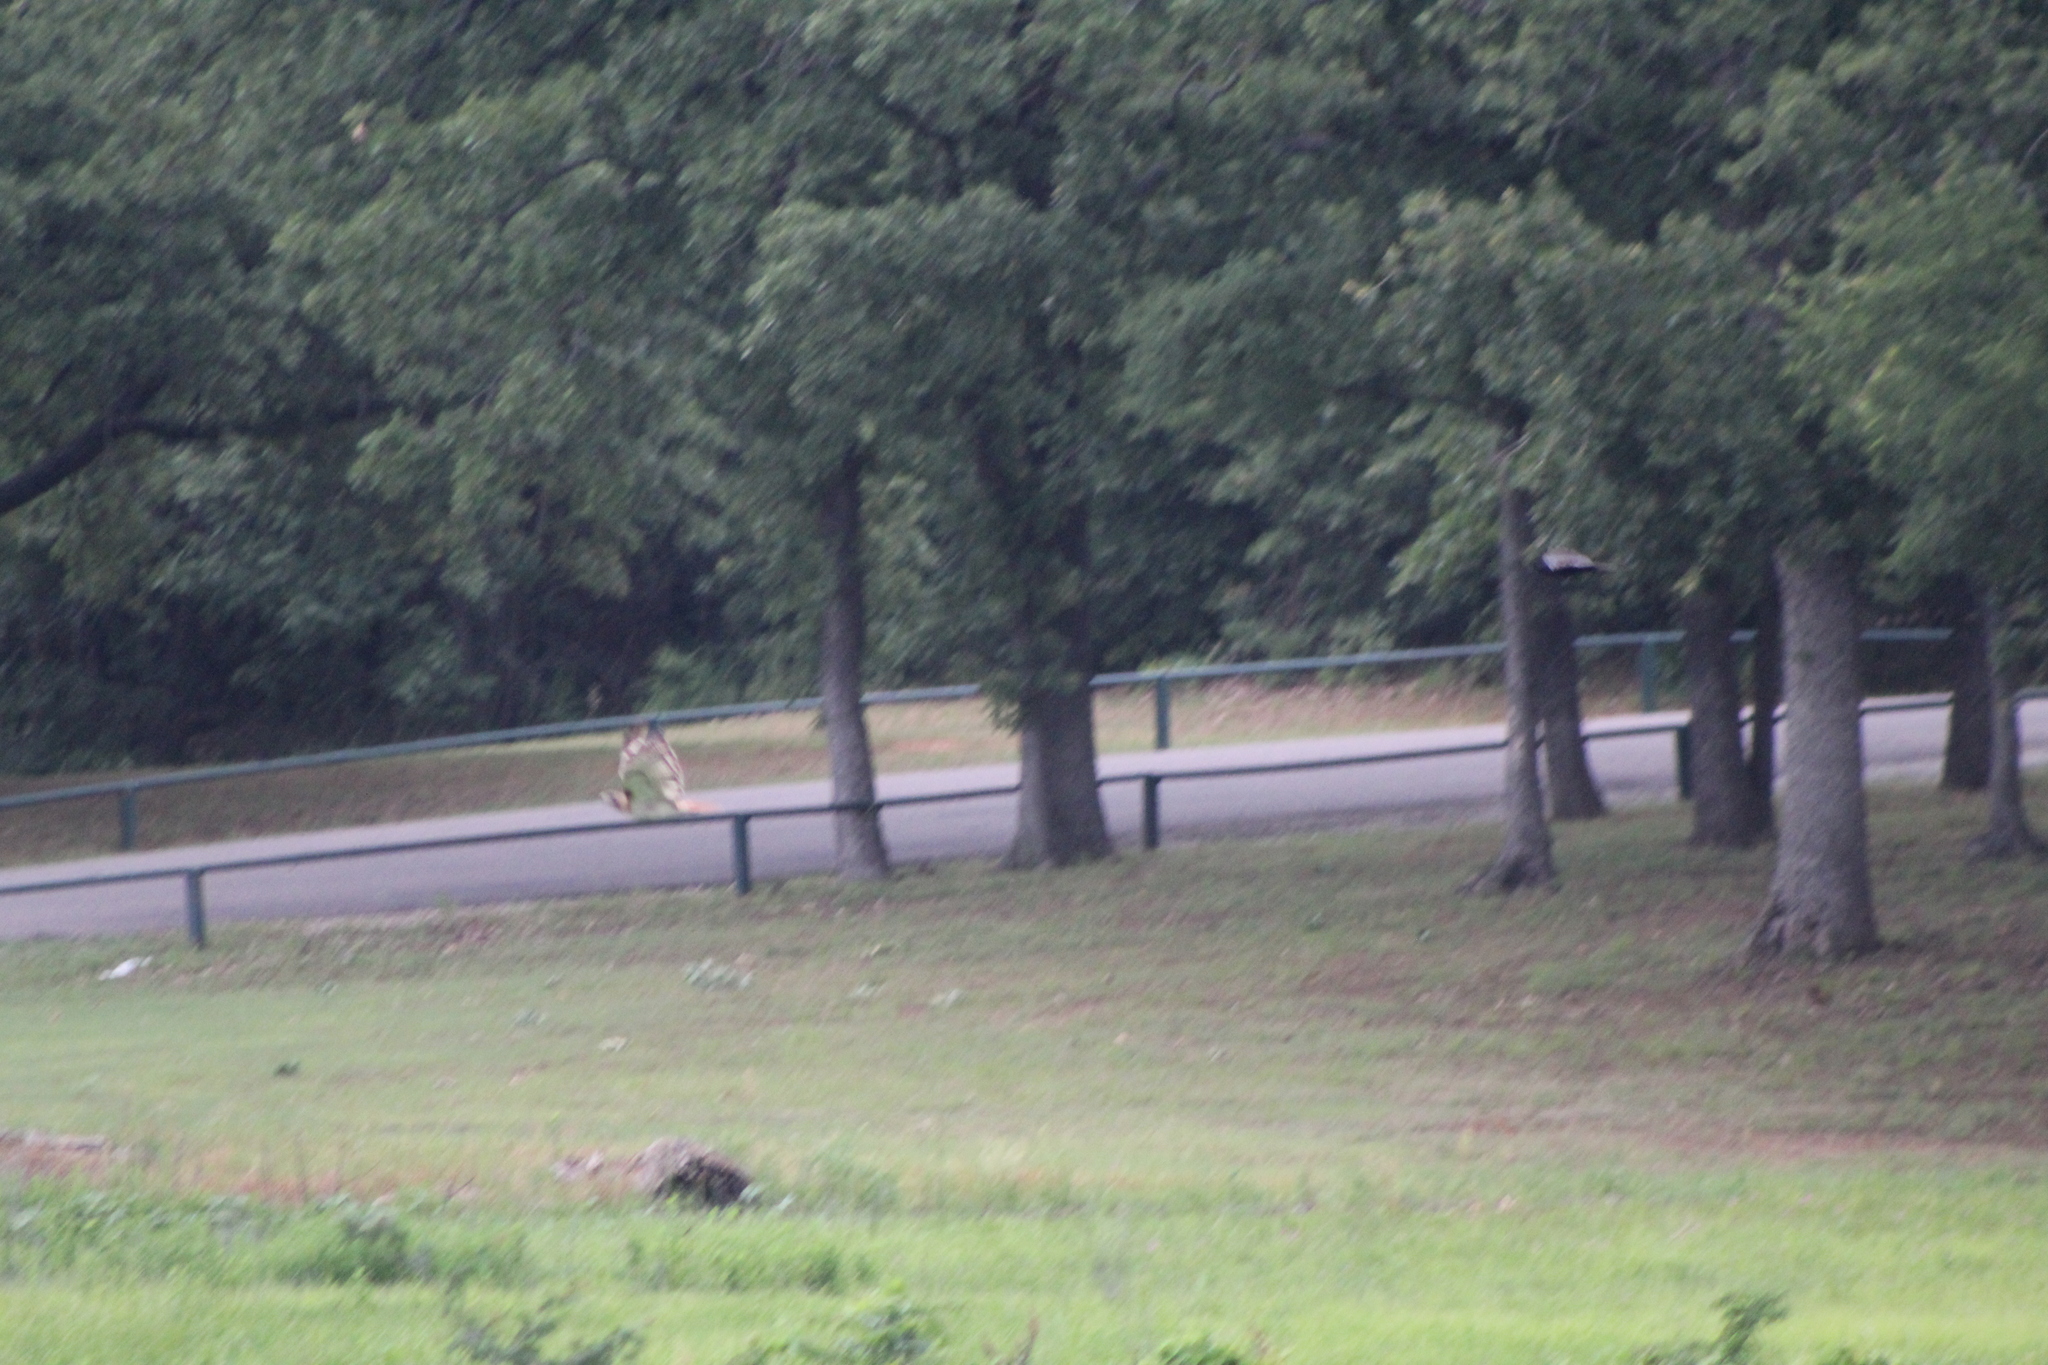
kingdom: Animalia
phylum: Chordata
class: Aves
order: Accipitriformes
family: Accipitridae
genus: Buteo
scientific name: Buteo jamaicensis
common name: Red-tailed hawk
